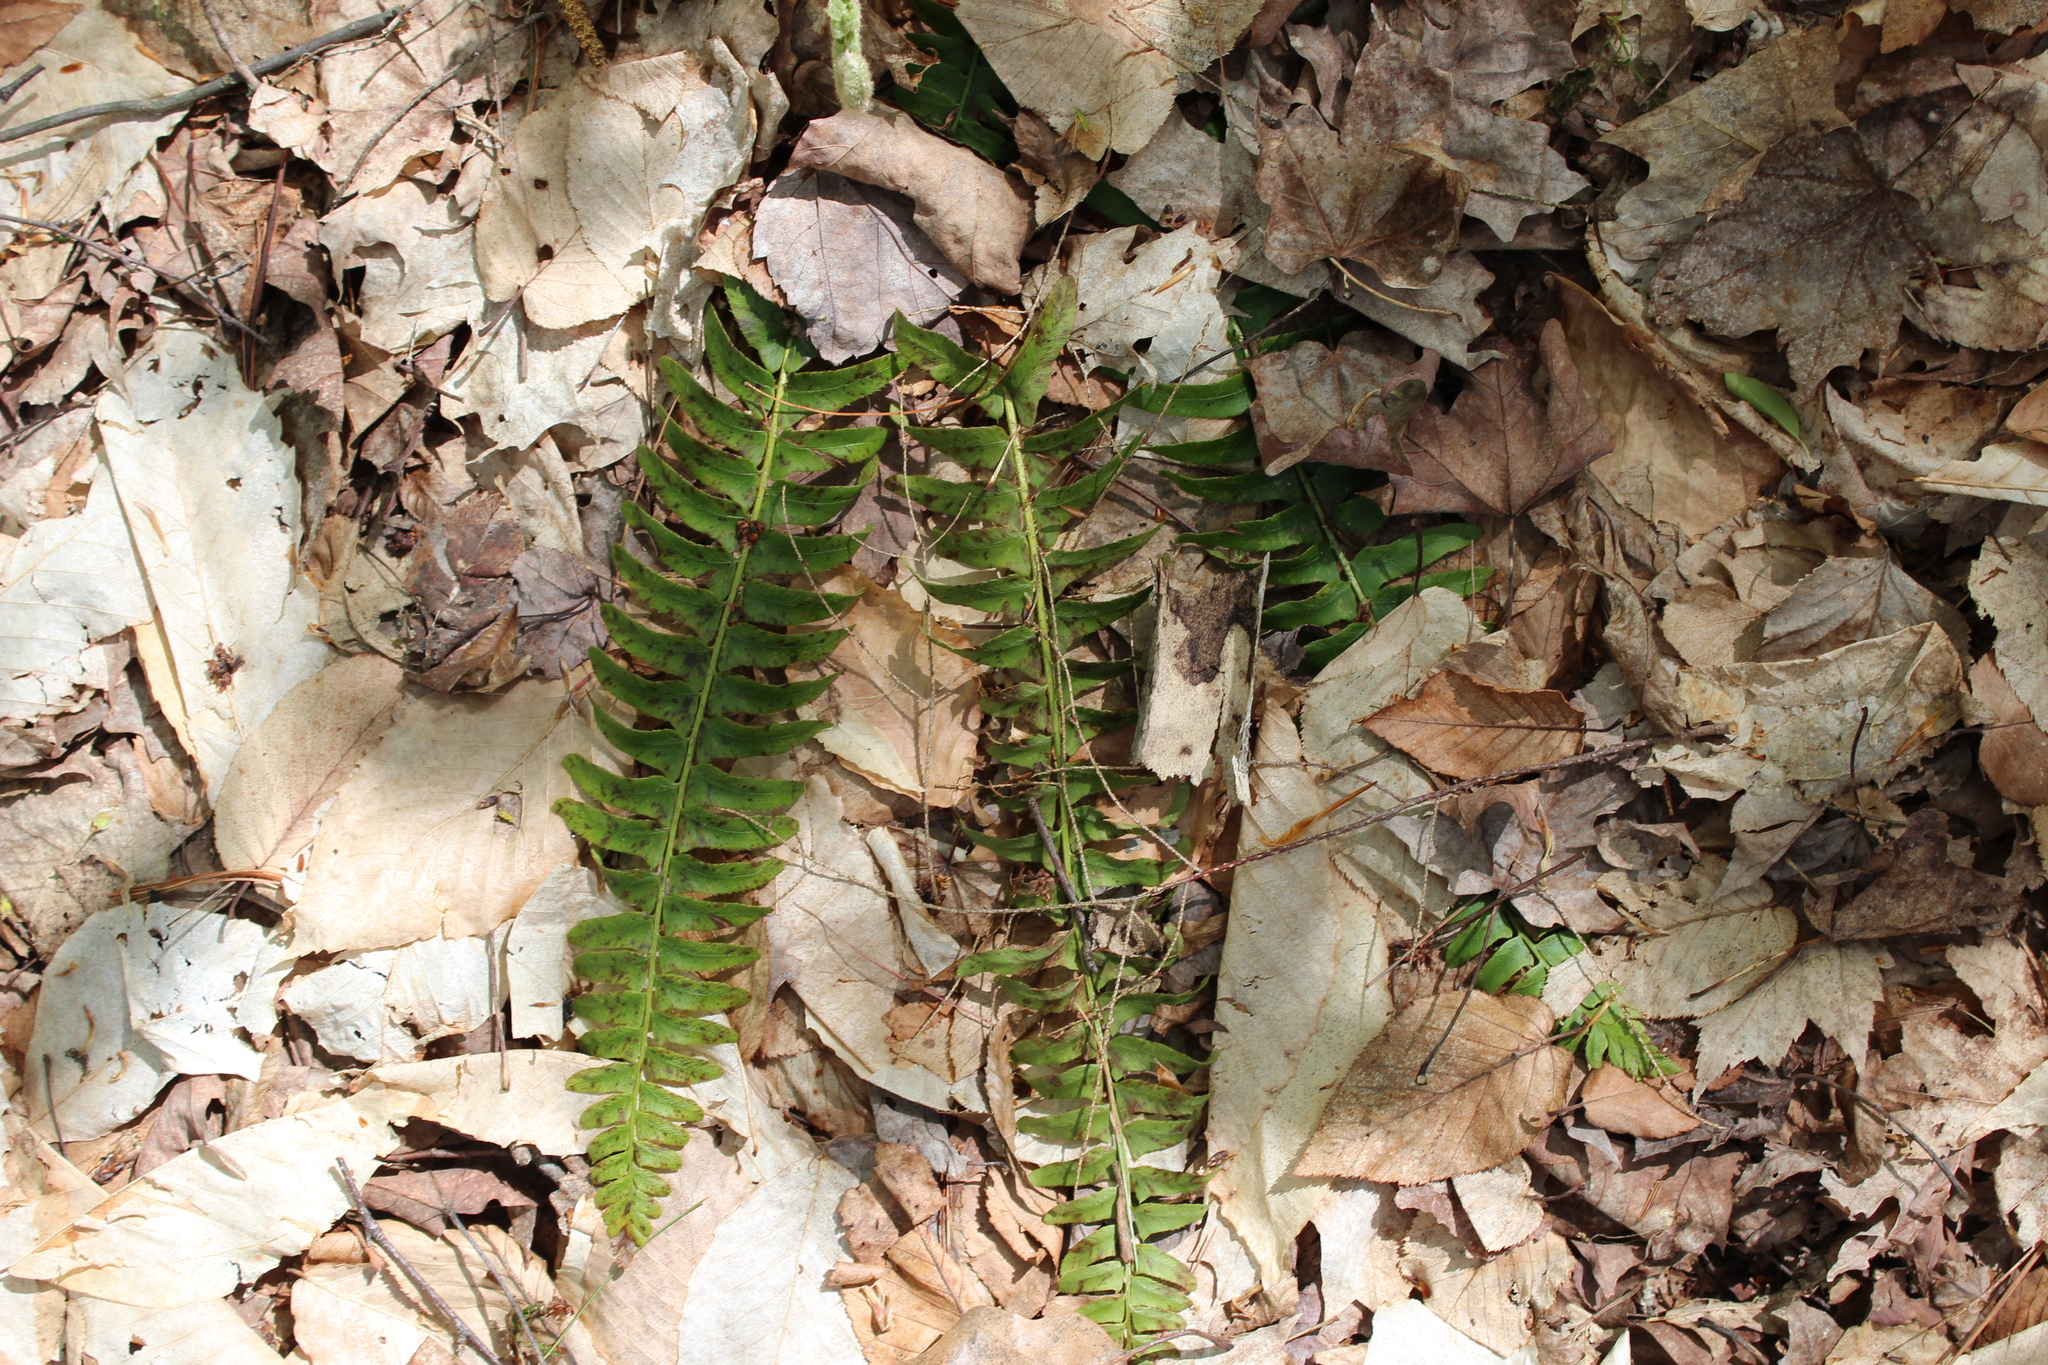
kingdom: Plantae
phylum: Tracheophyta
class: Polypodiopsida
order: Polypodiales
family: Dryopteridaceae
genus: Polystichum
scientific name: Polystichum acrostichoides
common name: Christmas fern
